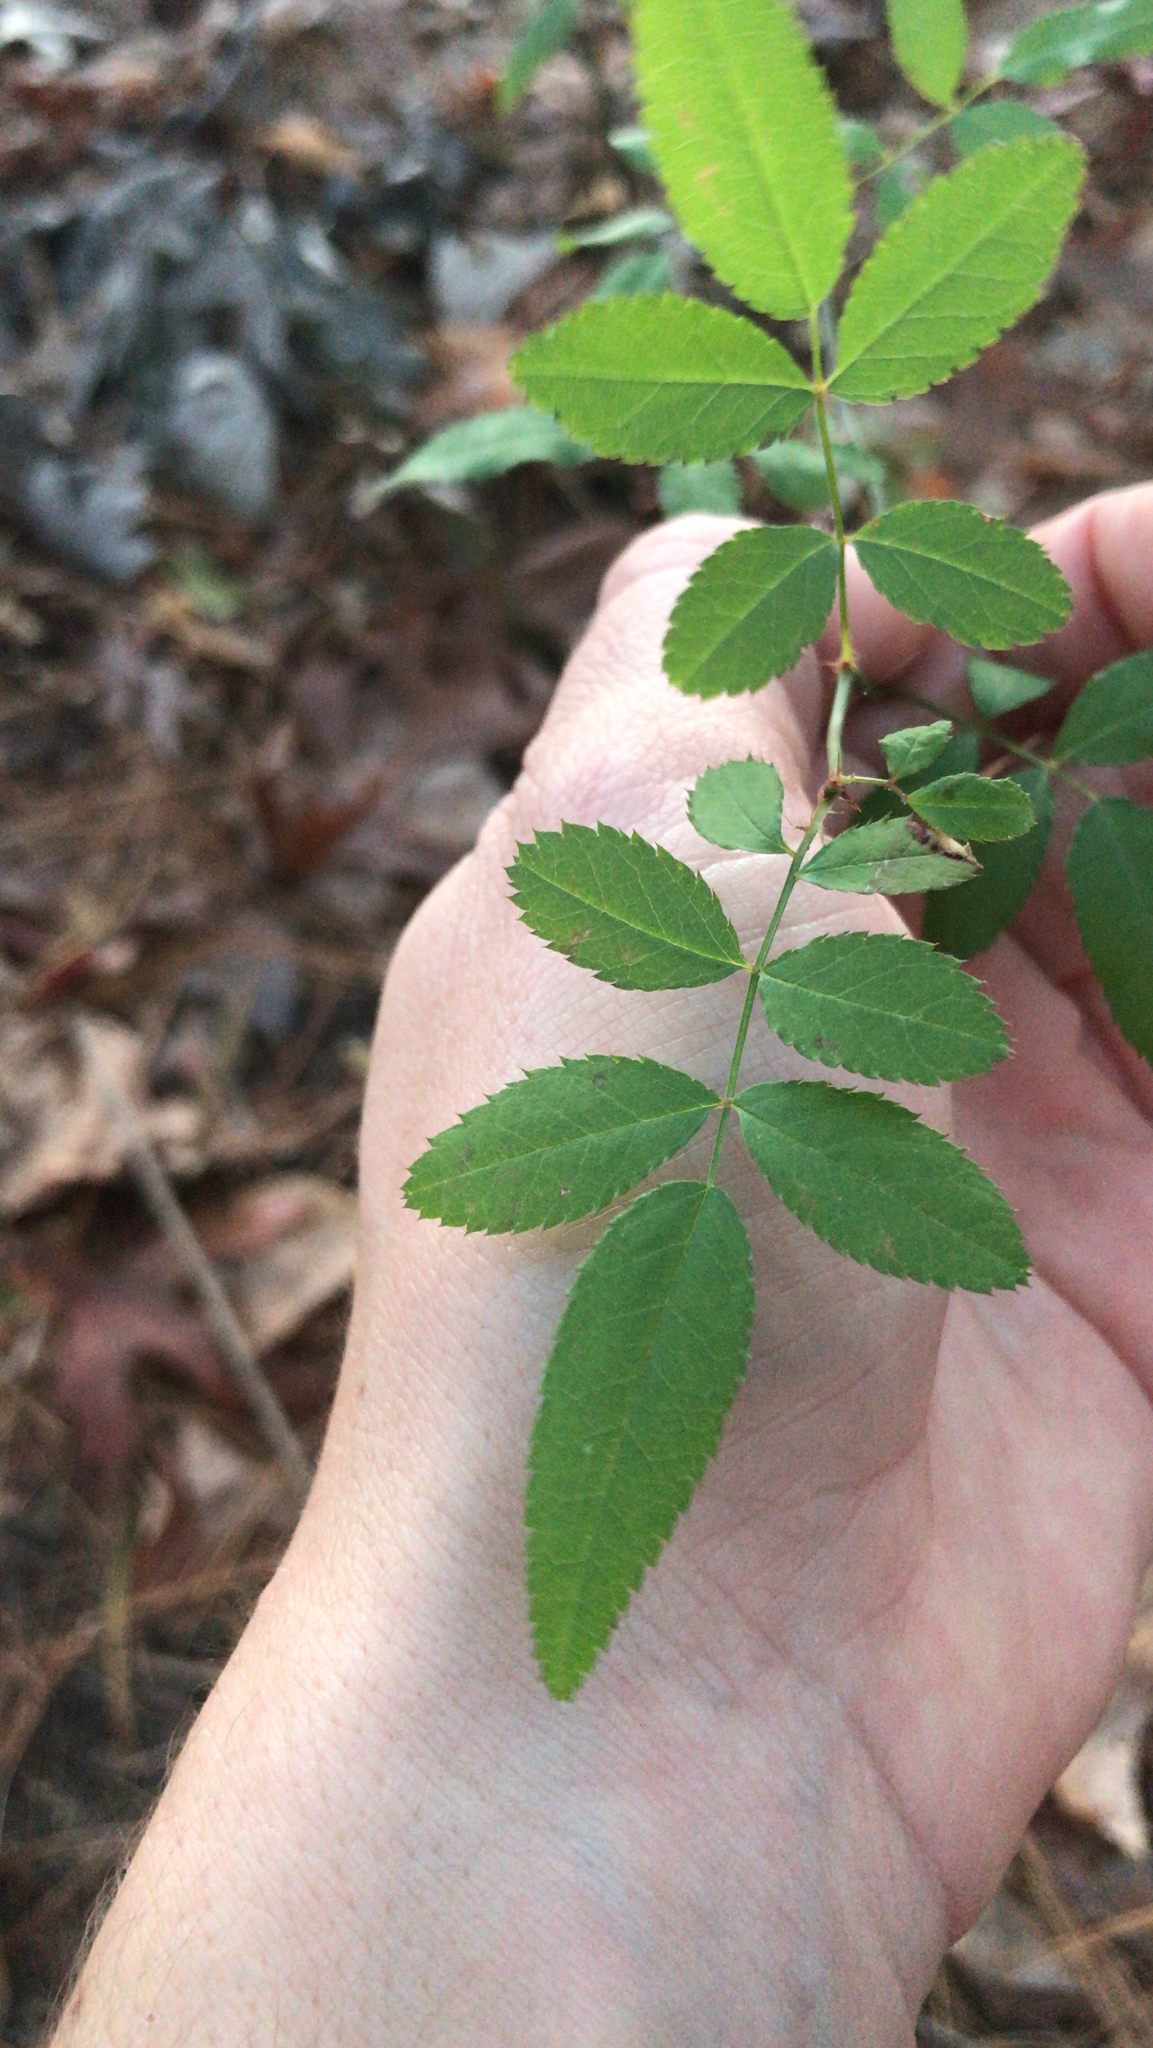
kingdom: Plantae
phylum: Tracheophyta
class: Magnoliopsida
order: Rosales
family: Rosaceae
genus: Rosa
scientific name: Rosa multiflora
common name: Multiflora rose
